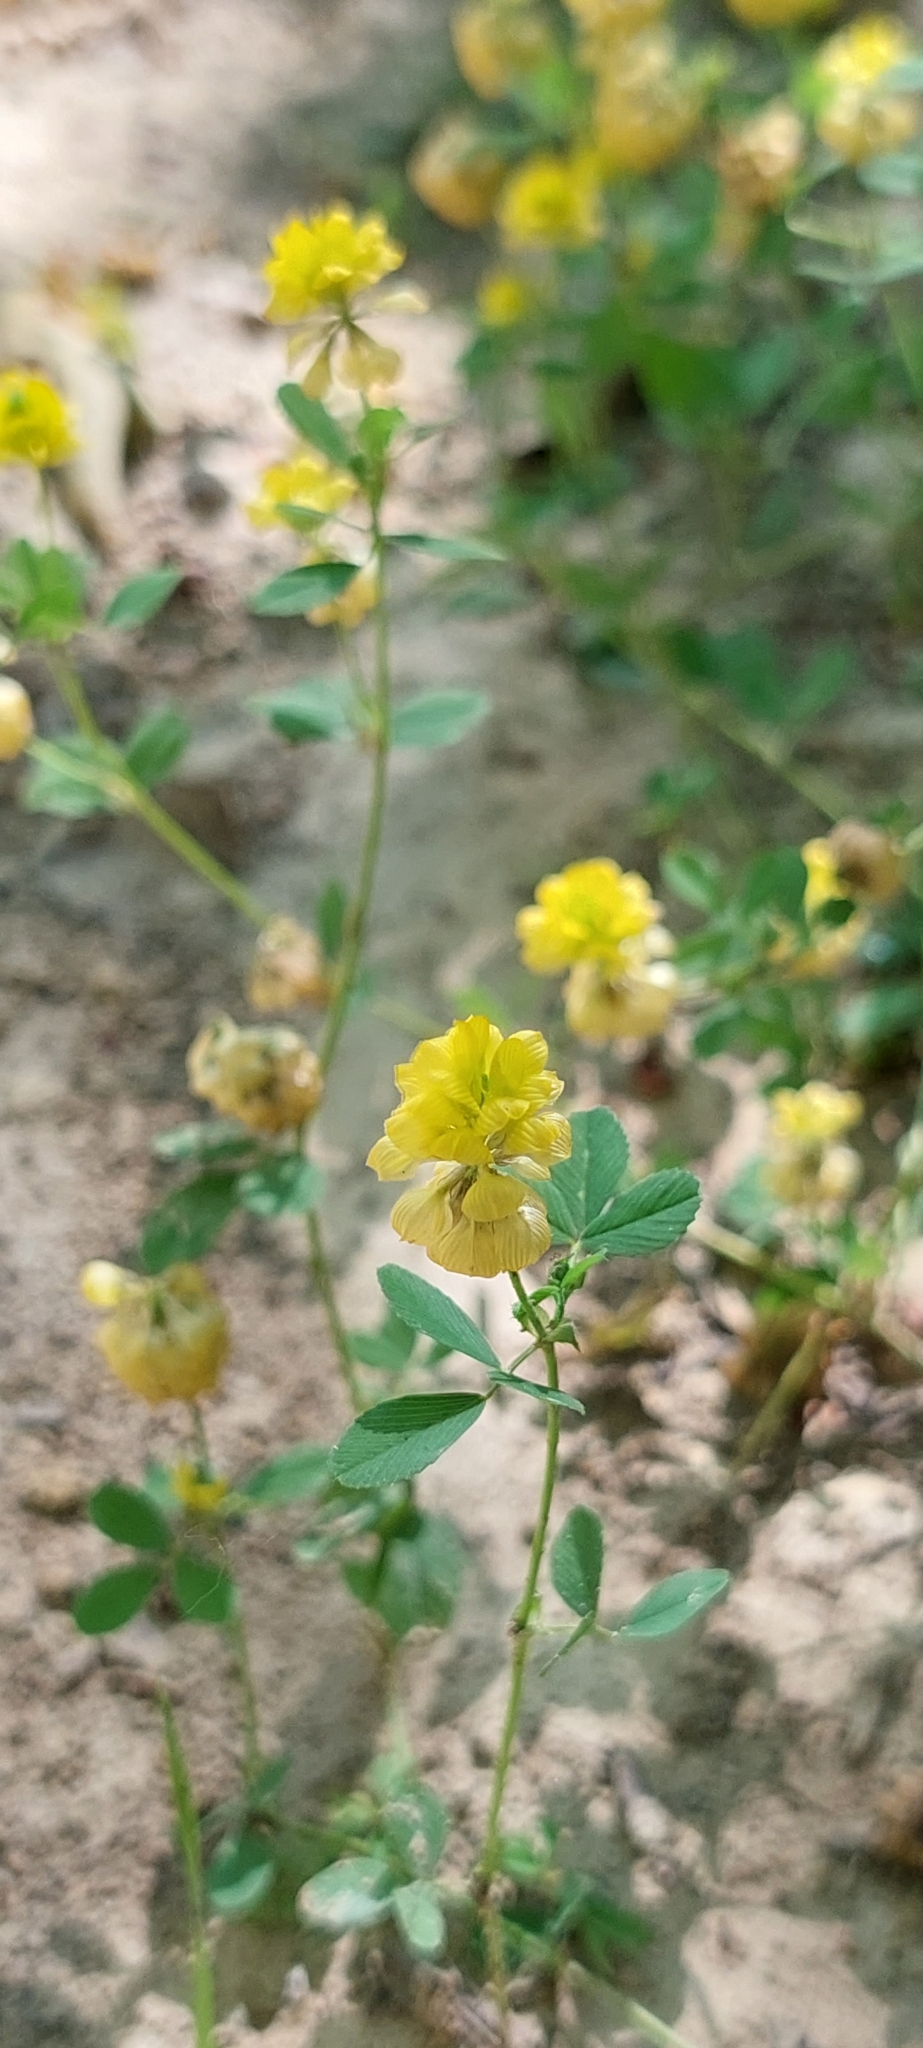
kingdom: Plantae
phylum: Tracheophyta
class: Magnoliopsida
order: Fabales
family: Fabaceae
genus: Trifolium
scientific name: Trifolium campestre
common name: Field clover
